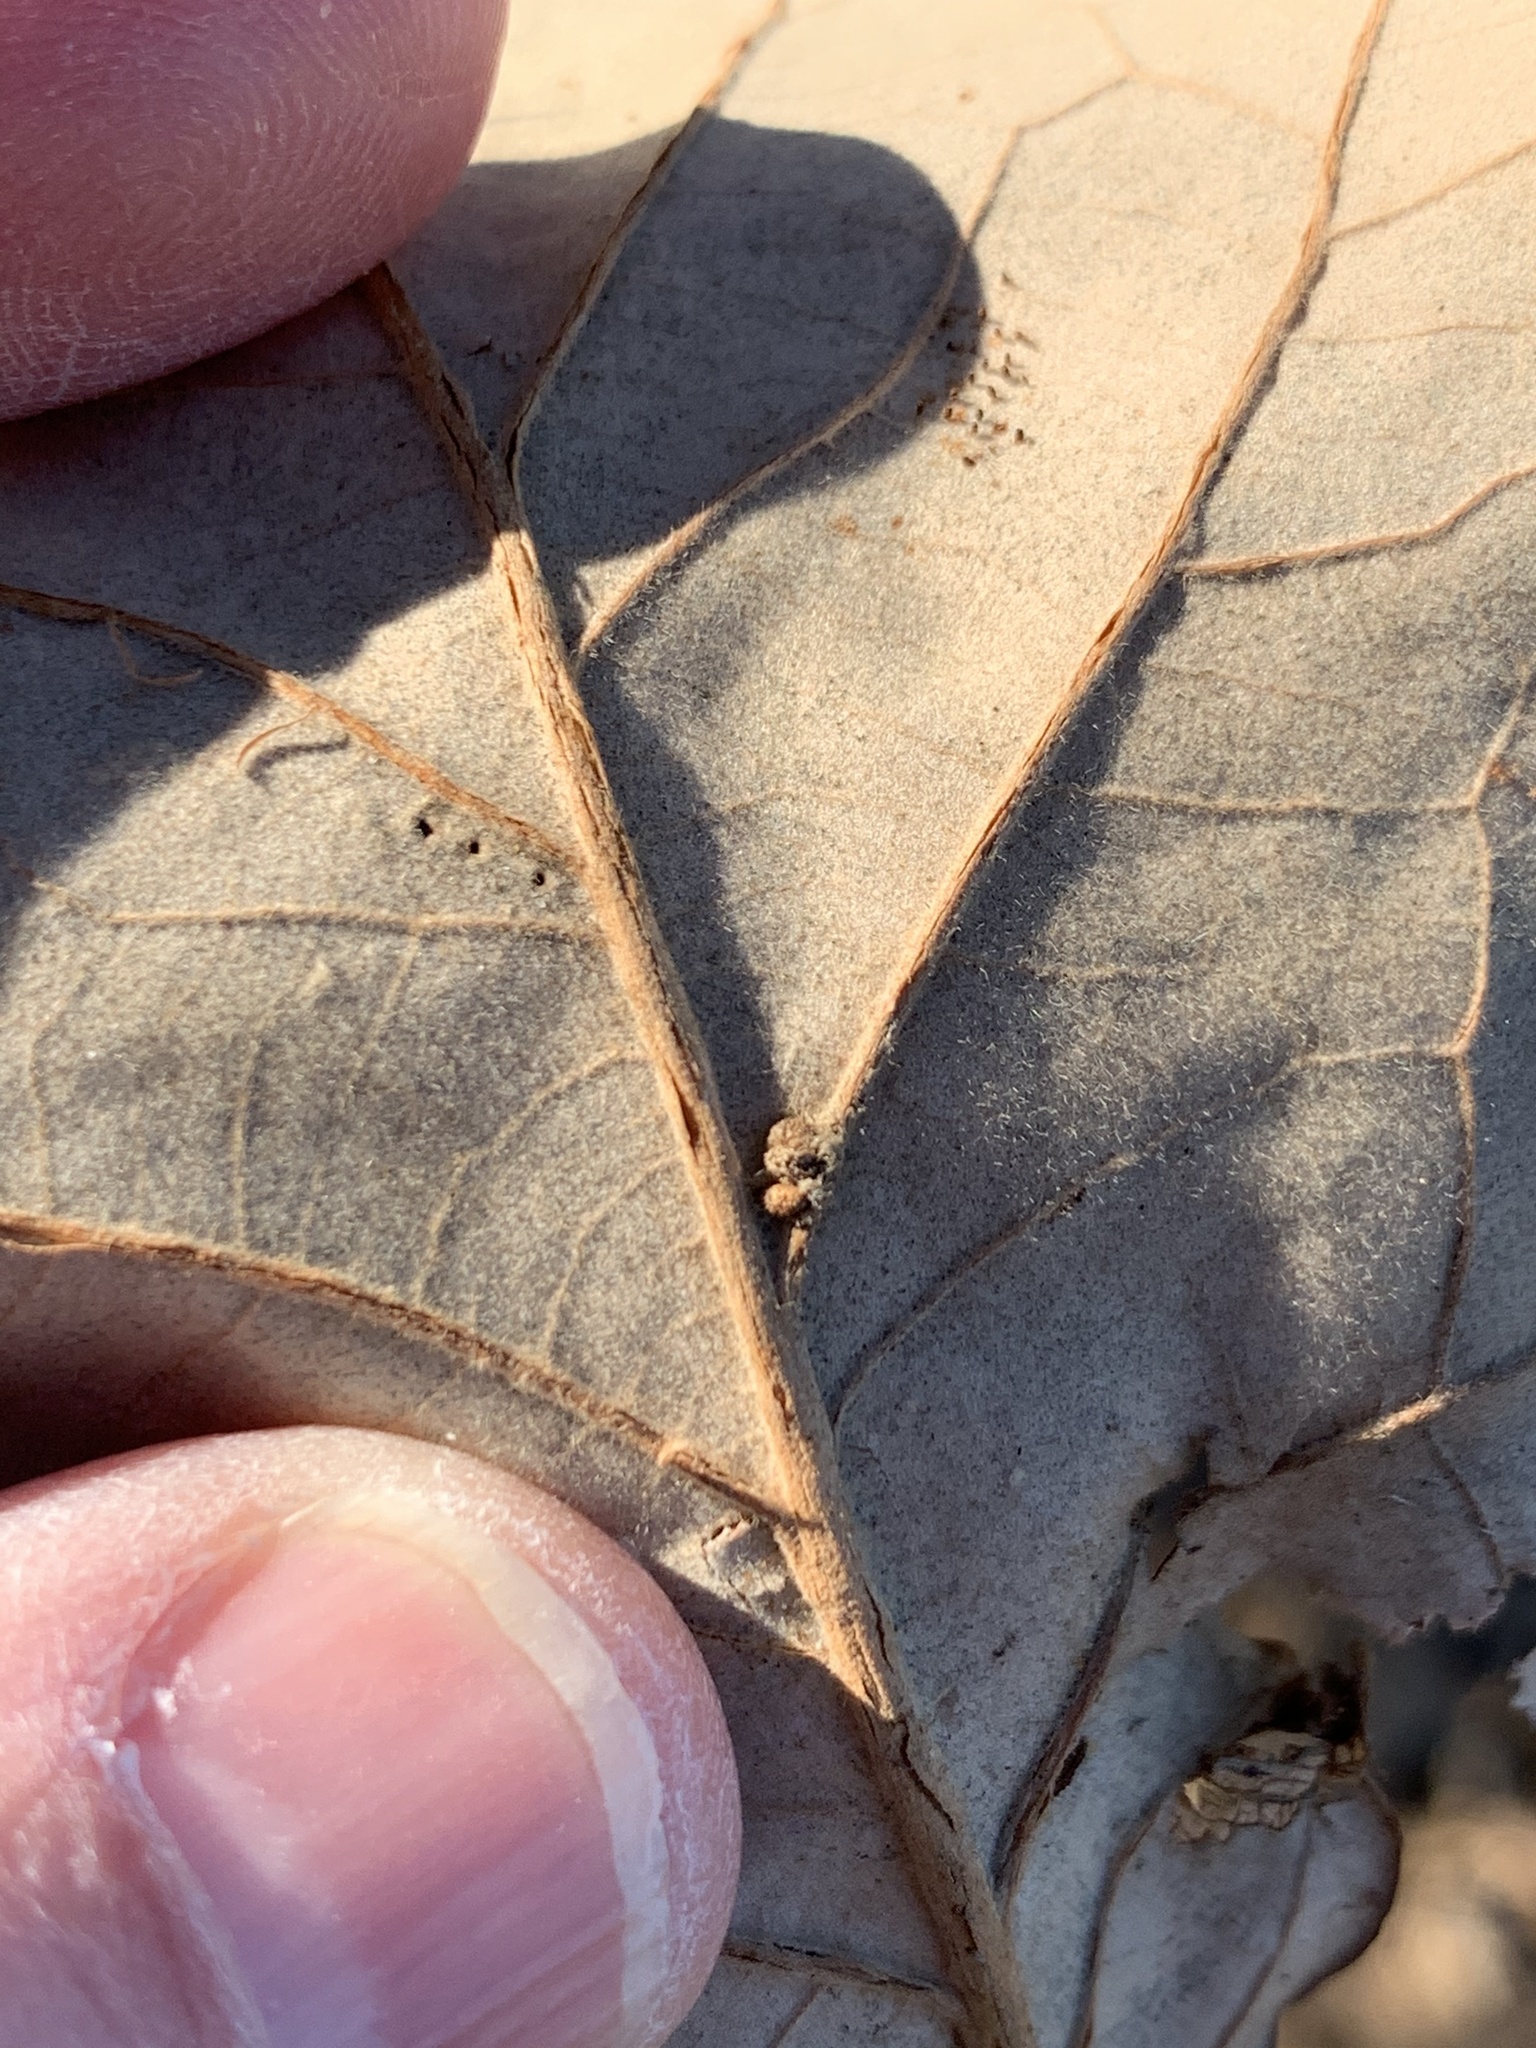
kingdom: Animalia
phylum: Arthropoda
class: Insecta
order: Hymenoptera
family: Cynipidae
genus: Andricus
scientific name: Andricus Druon ignotum
